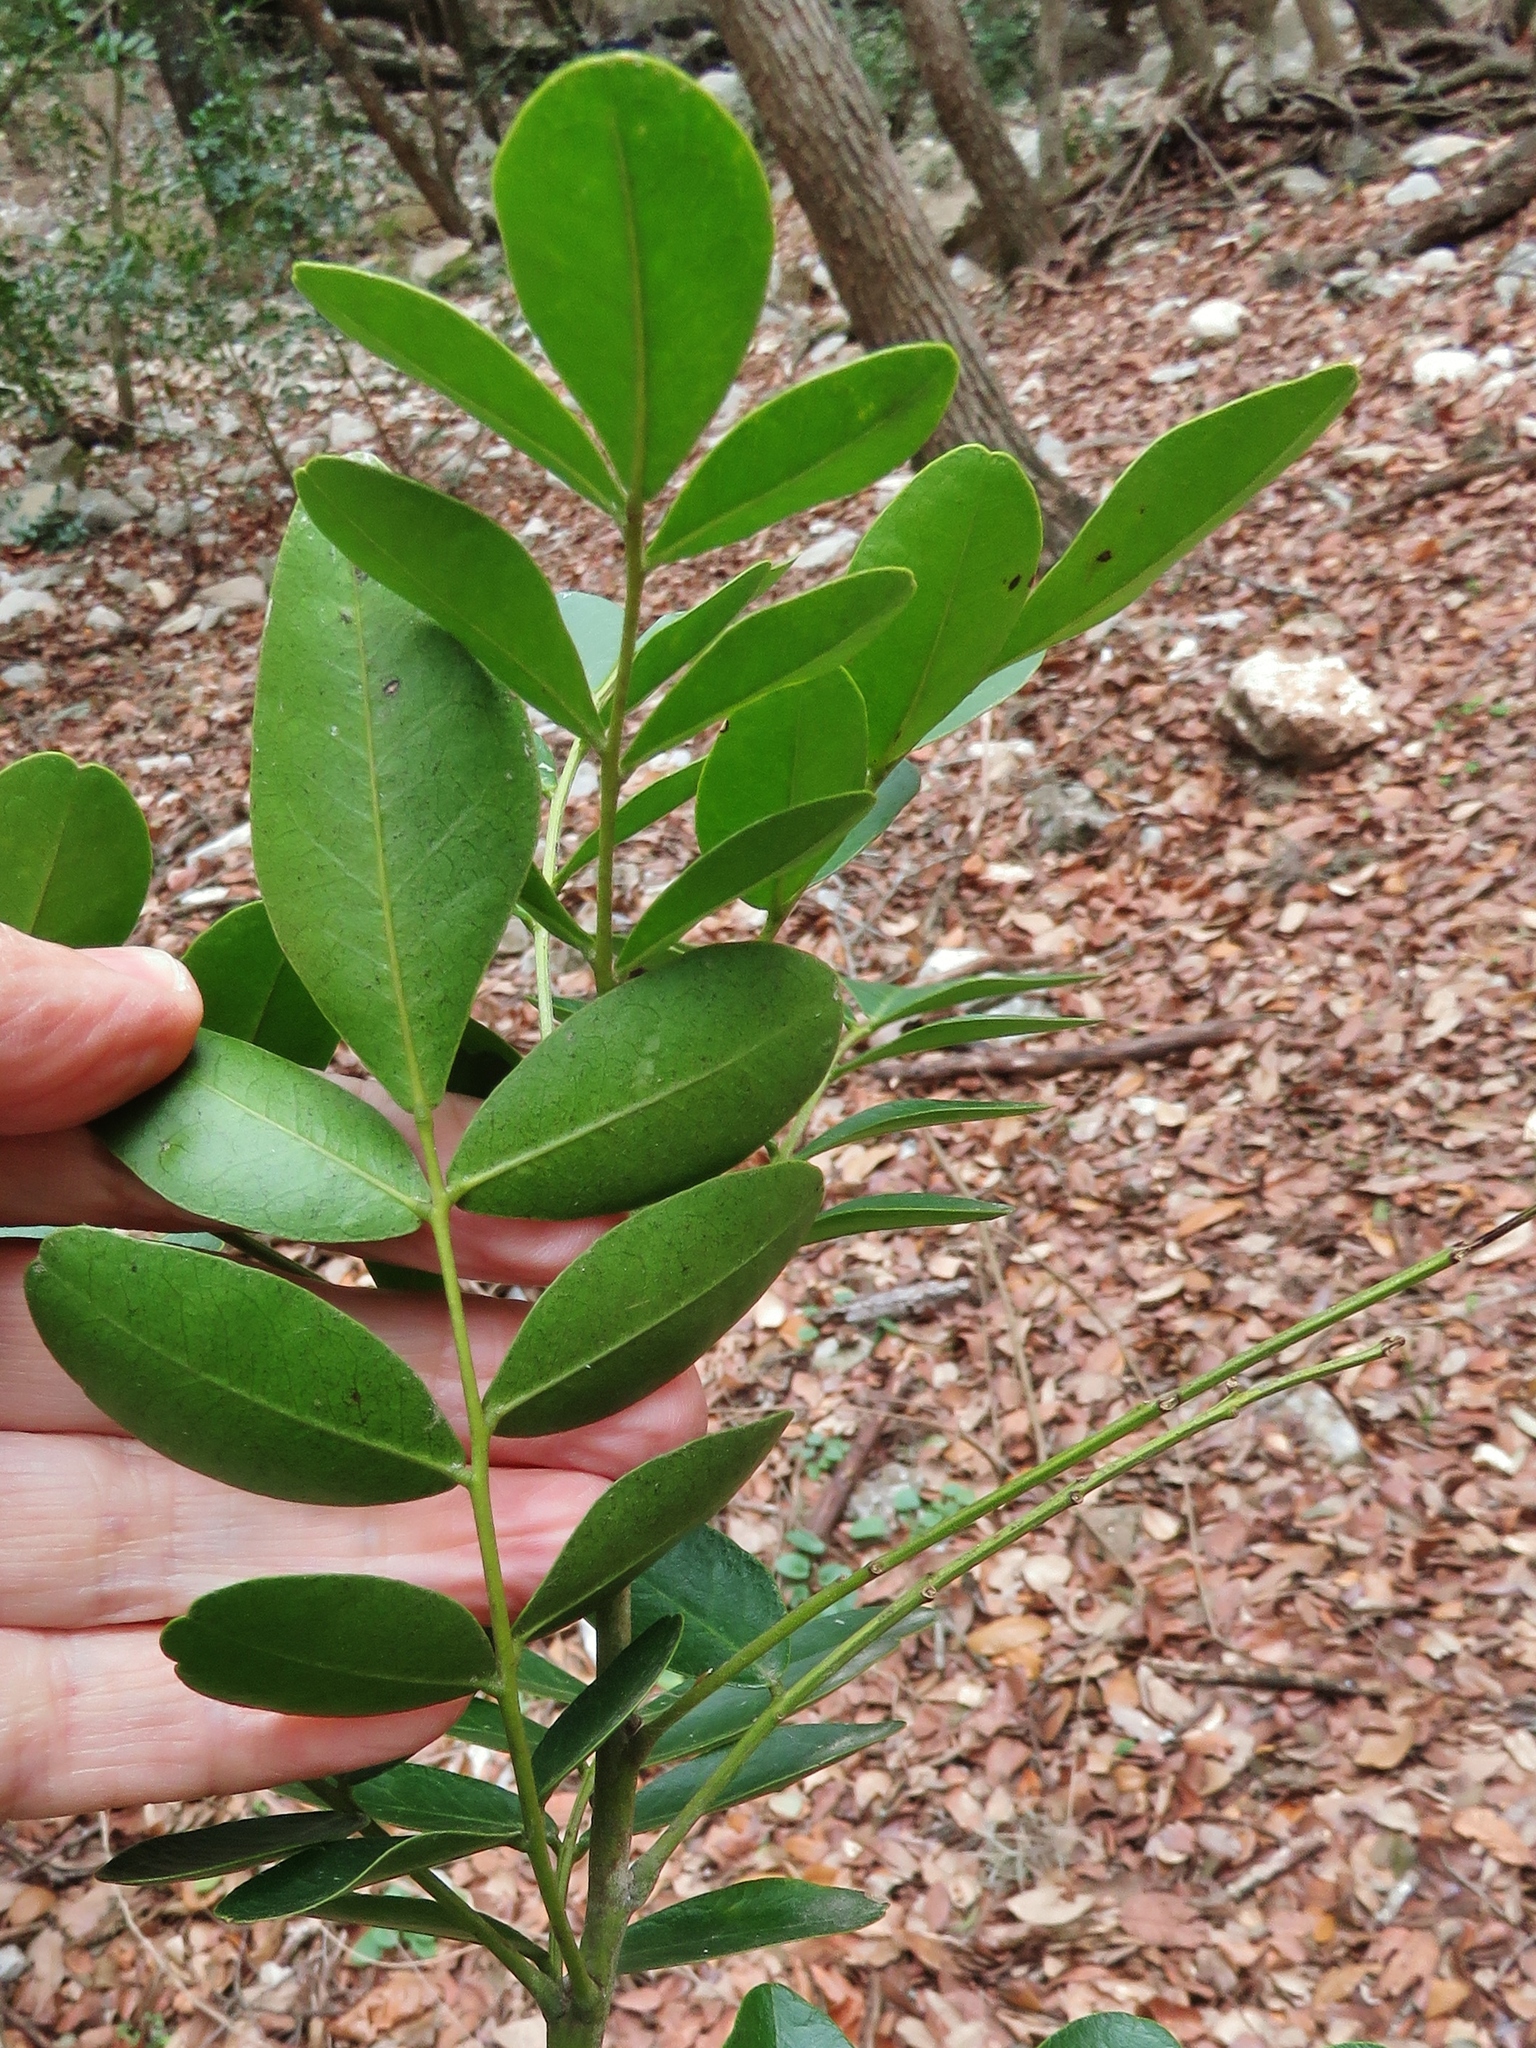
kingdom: Plantae
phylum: Tracheophyta
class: Magnoliopsida
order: Fabales
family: Fabaceae
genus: Dermatophyllum
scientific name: Dermatophyllum secundiflorum
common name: Texas-mountain-laurel
